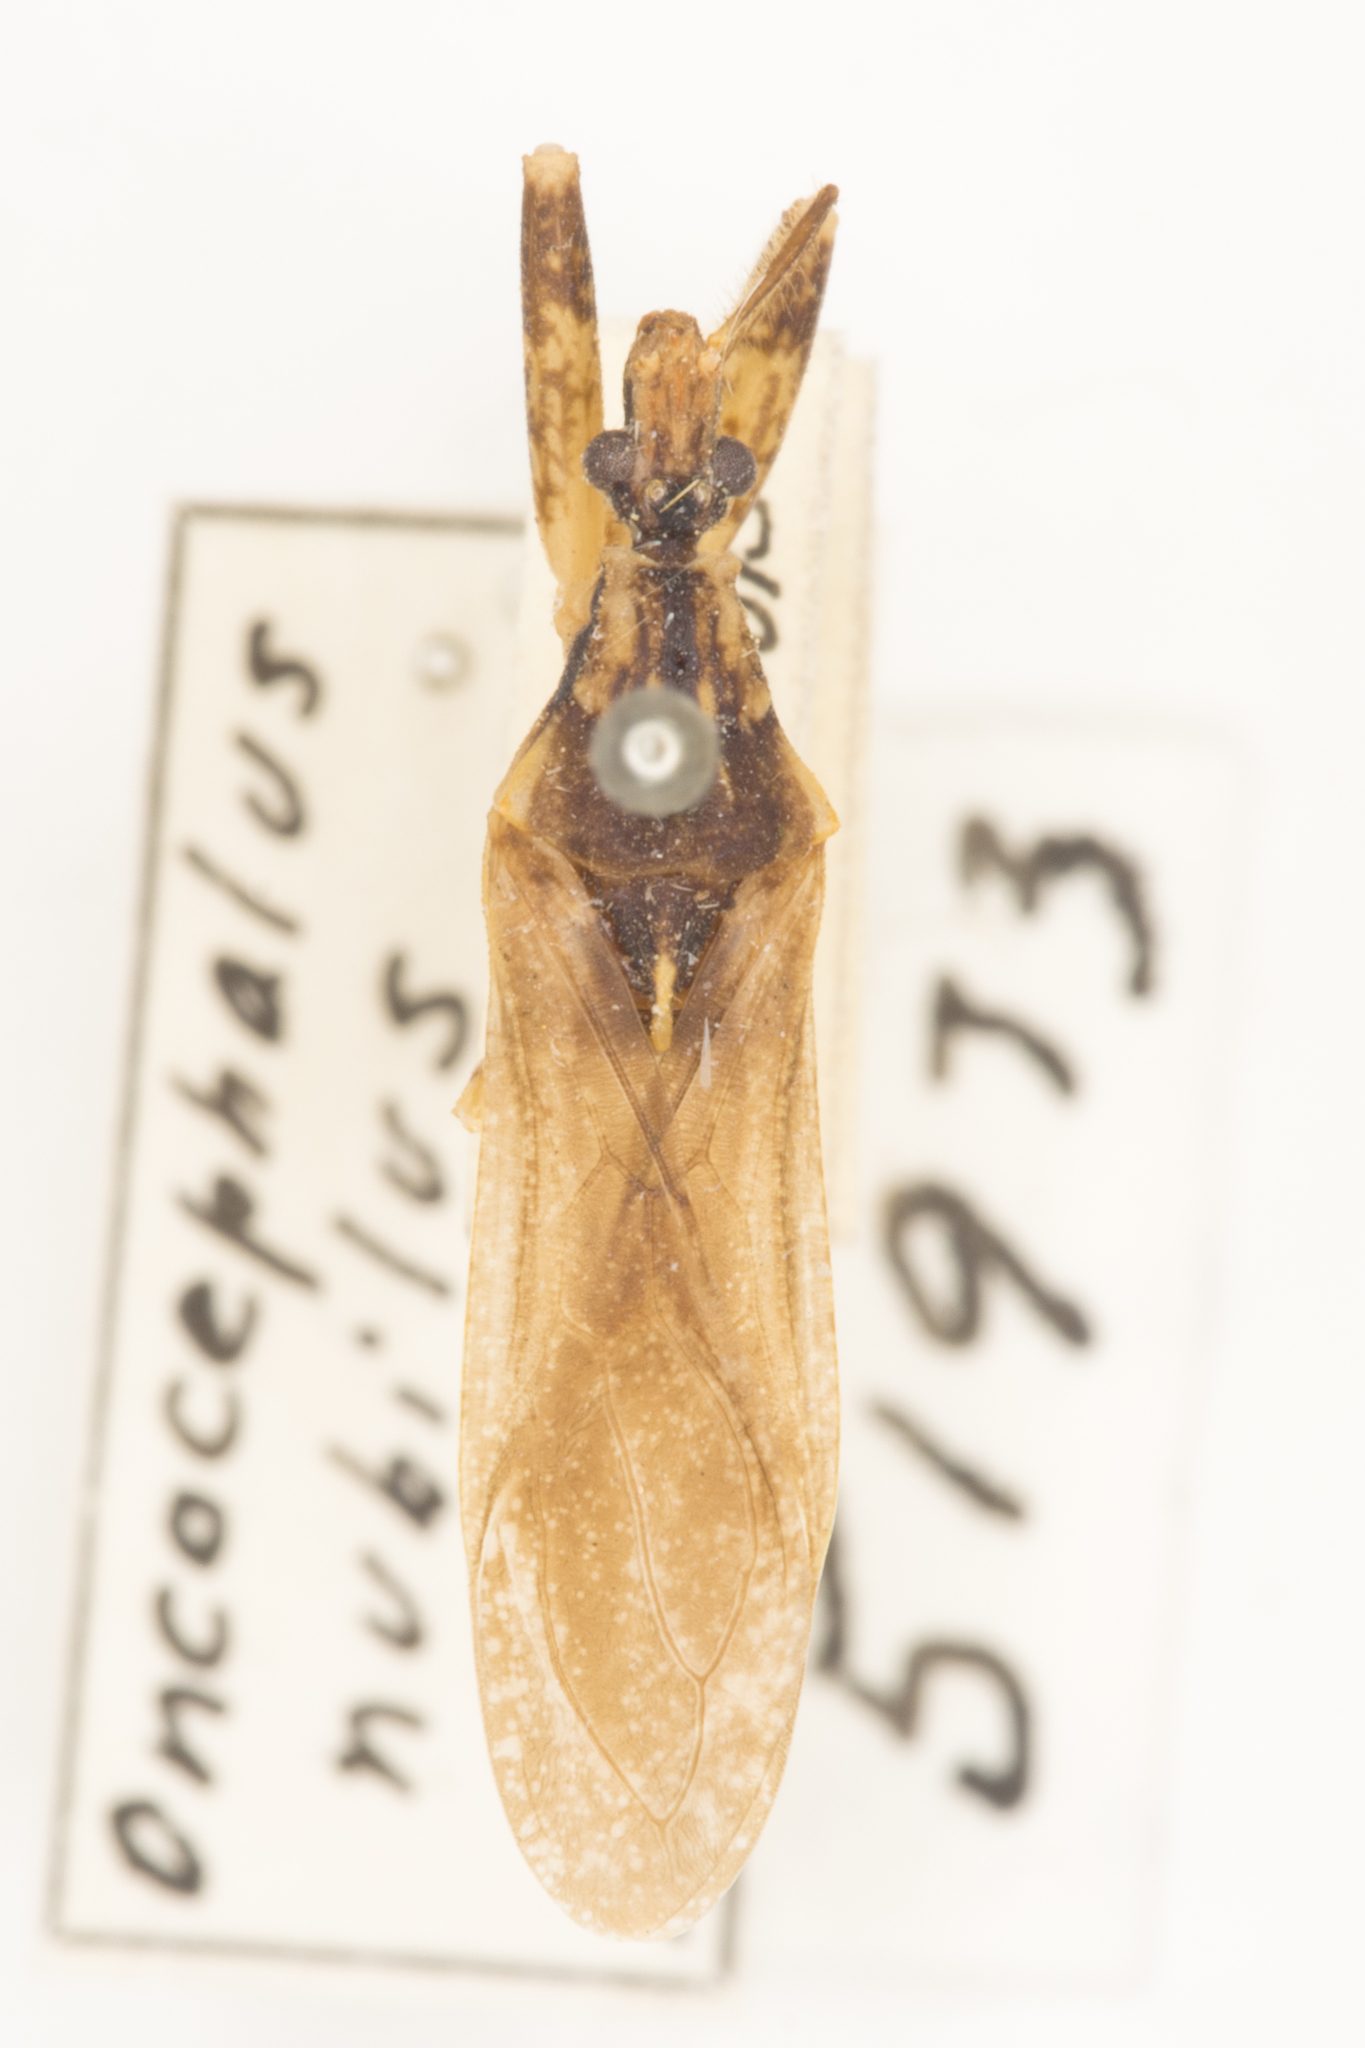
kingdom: Animalia
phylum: Arthropoda
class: Insecta
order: Hemiptera
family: Reduviidae
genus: Oncocephalus
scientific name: Oncocephalus nubilus
